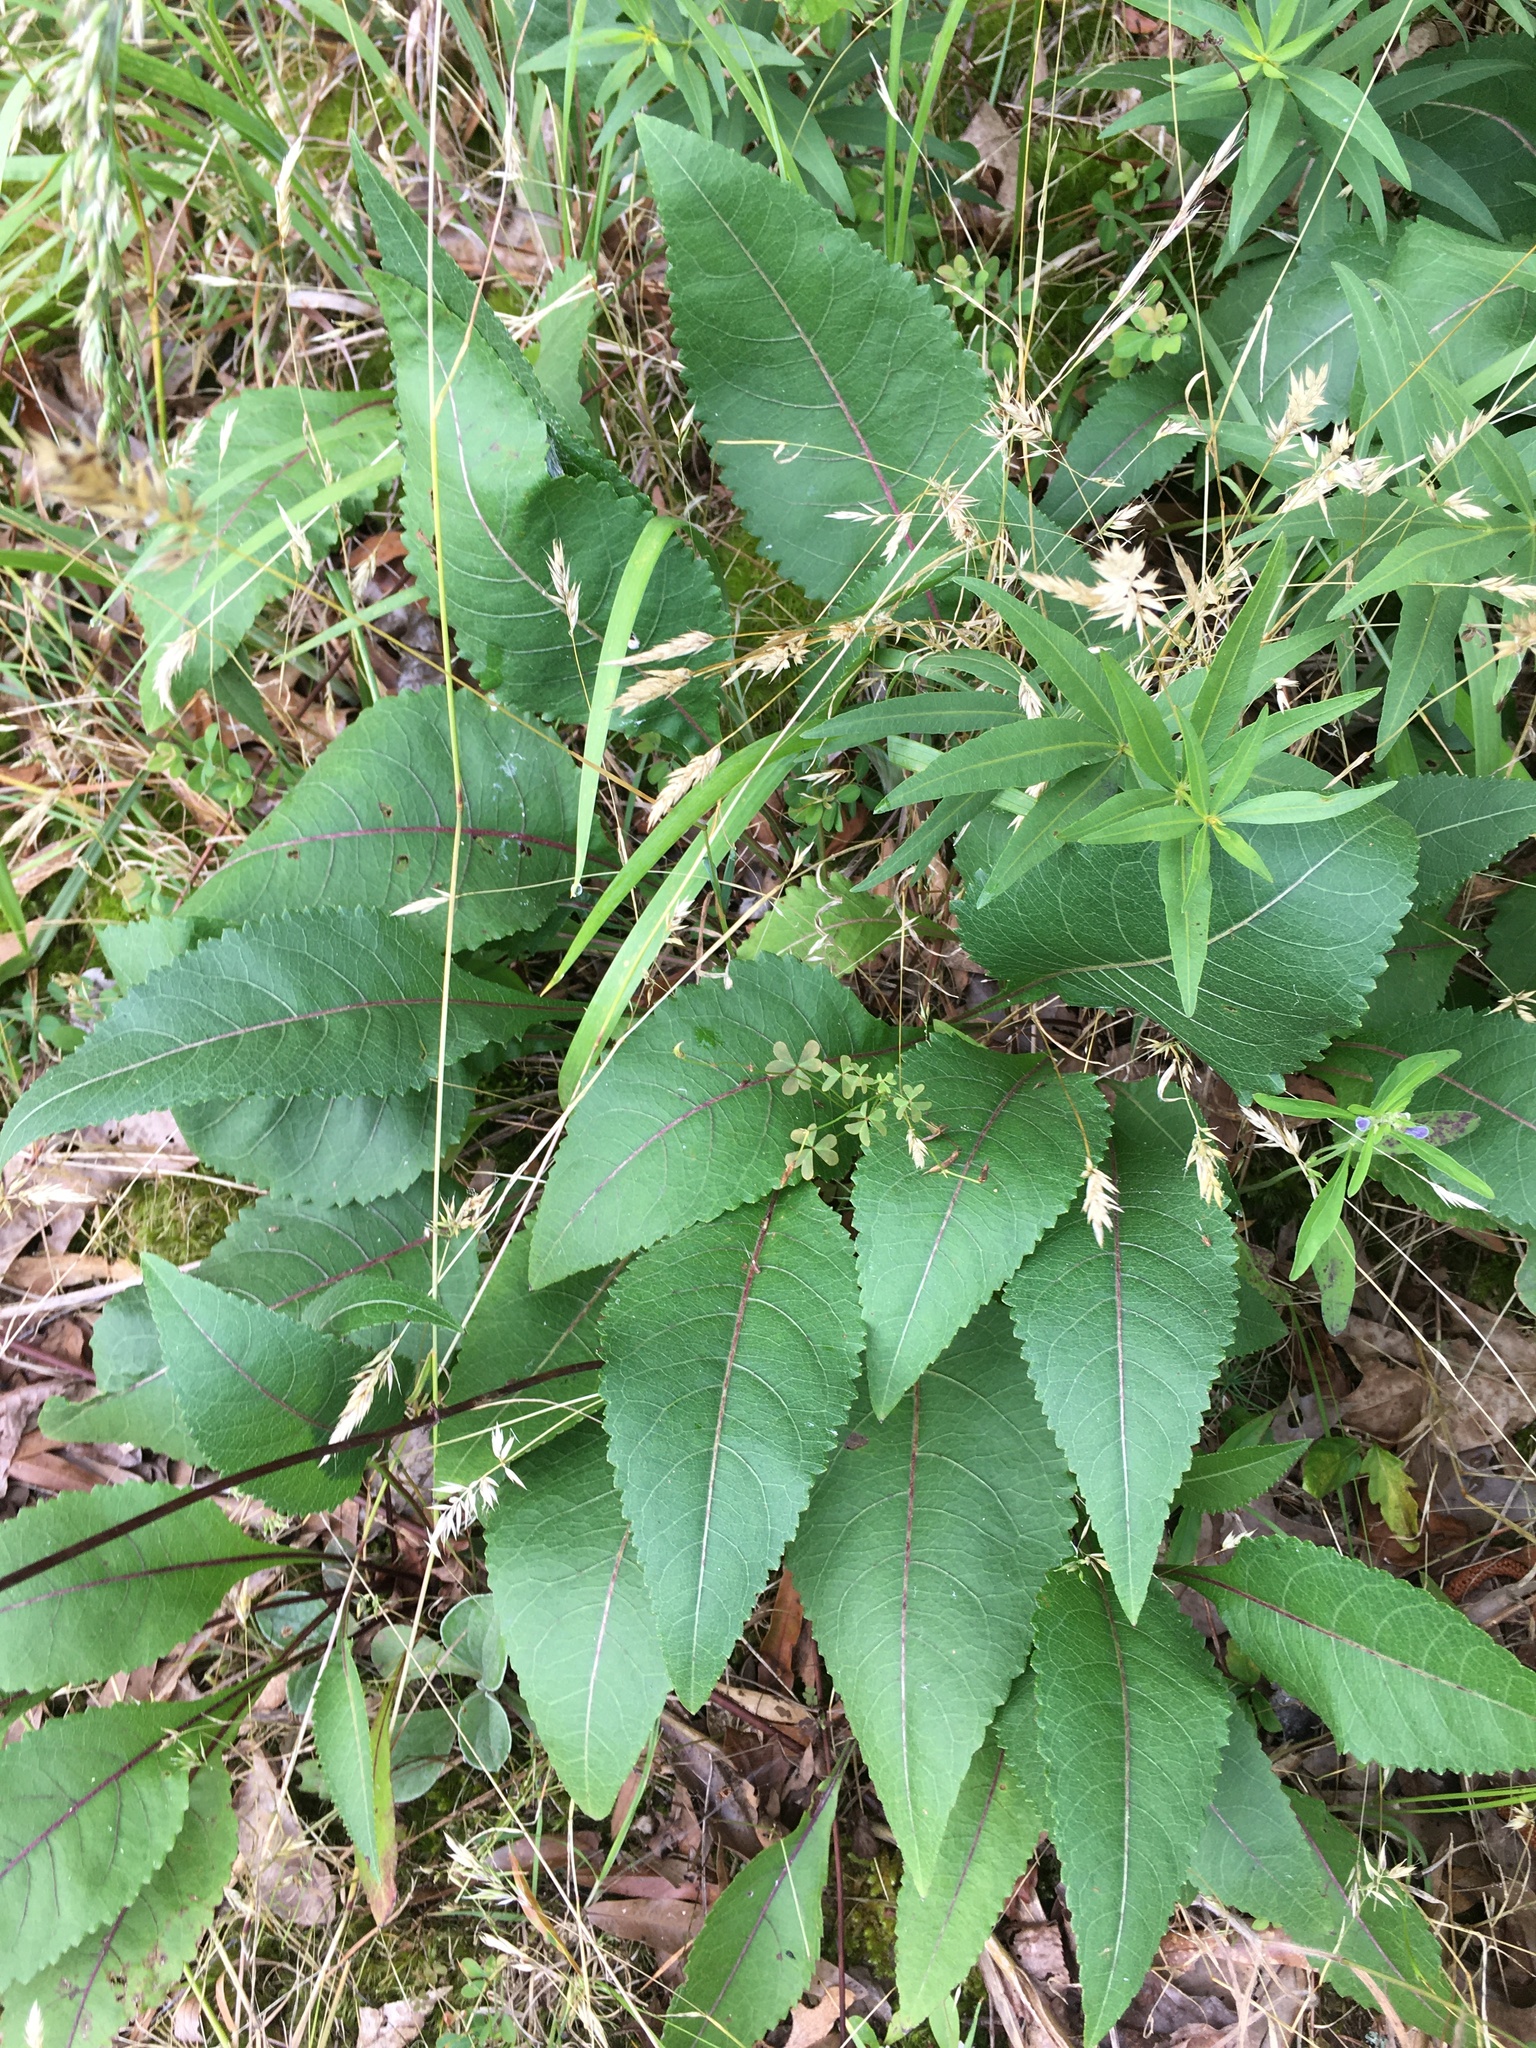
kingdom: Plantae
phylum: Tracheophyta
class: Magnoliopsida
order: Asterales
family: Asteraceae
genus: Parthenium
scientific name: Parthenium integrifolium
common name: American feverfew
